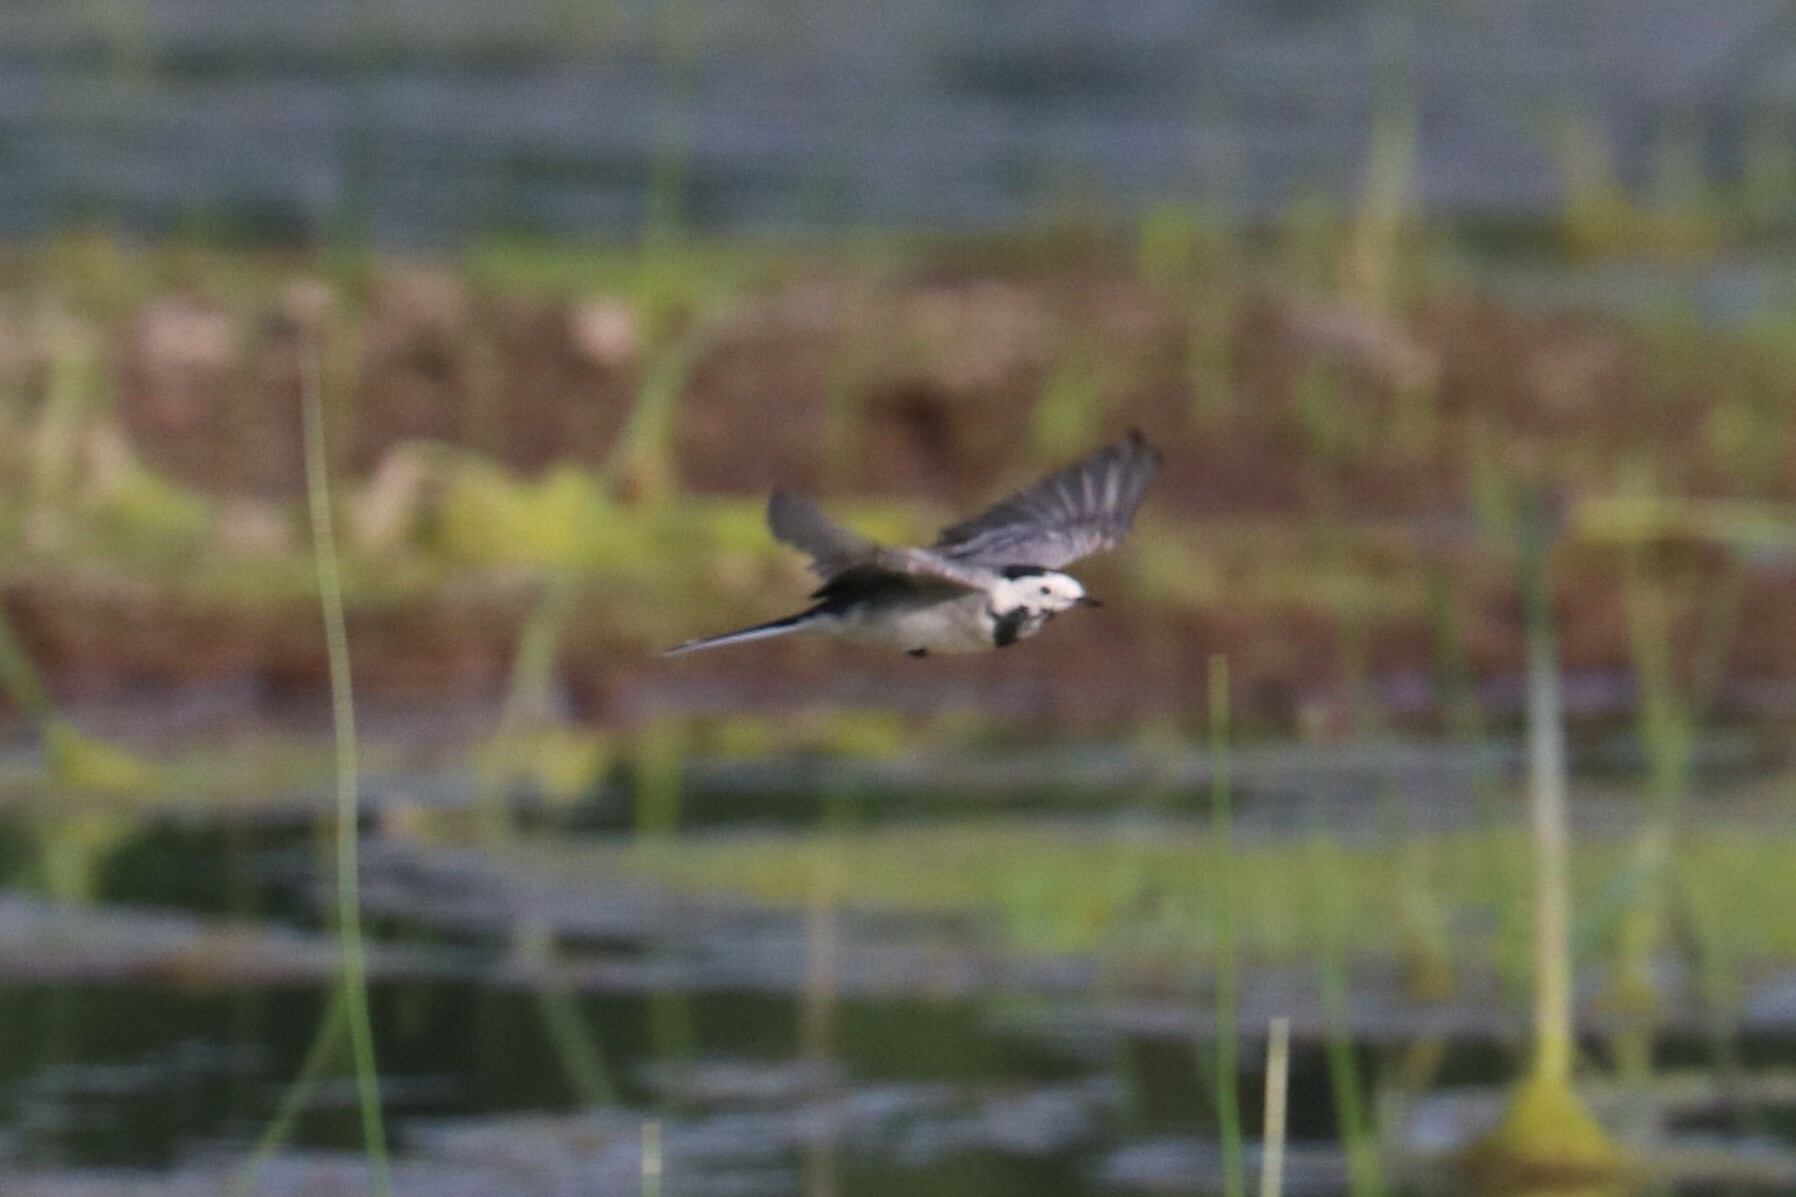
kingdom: Animalia
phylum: Chordata
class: Aves
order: Passeriformes
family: Motacillidae
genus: Motacilla
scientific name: Motacilla alba
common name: White wagtail
